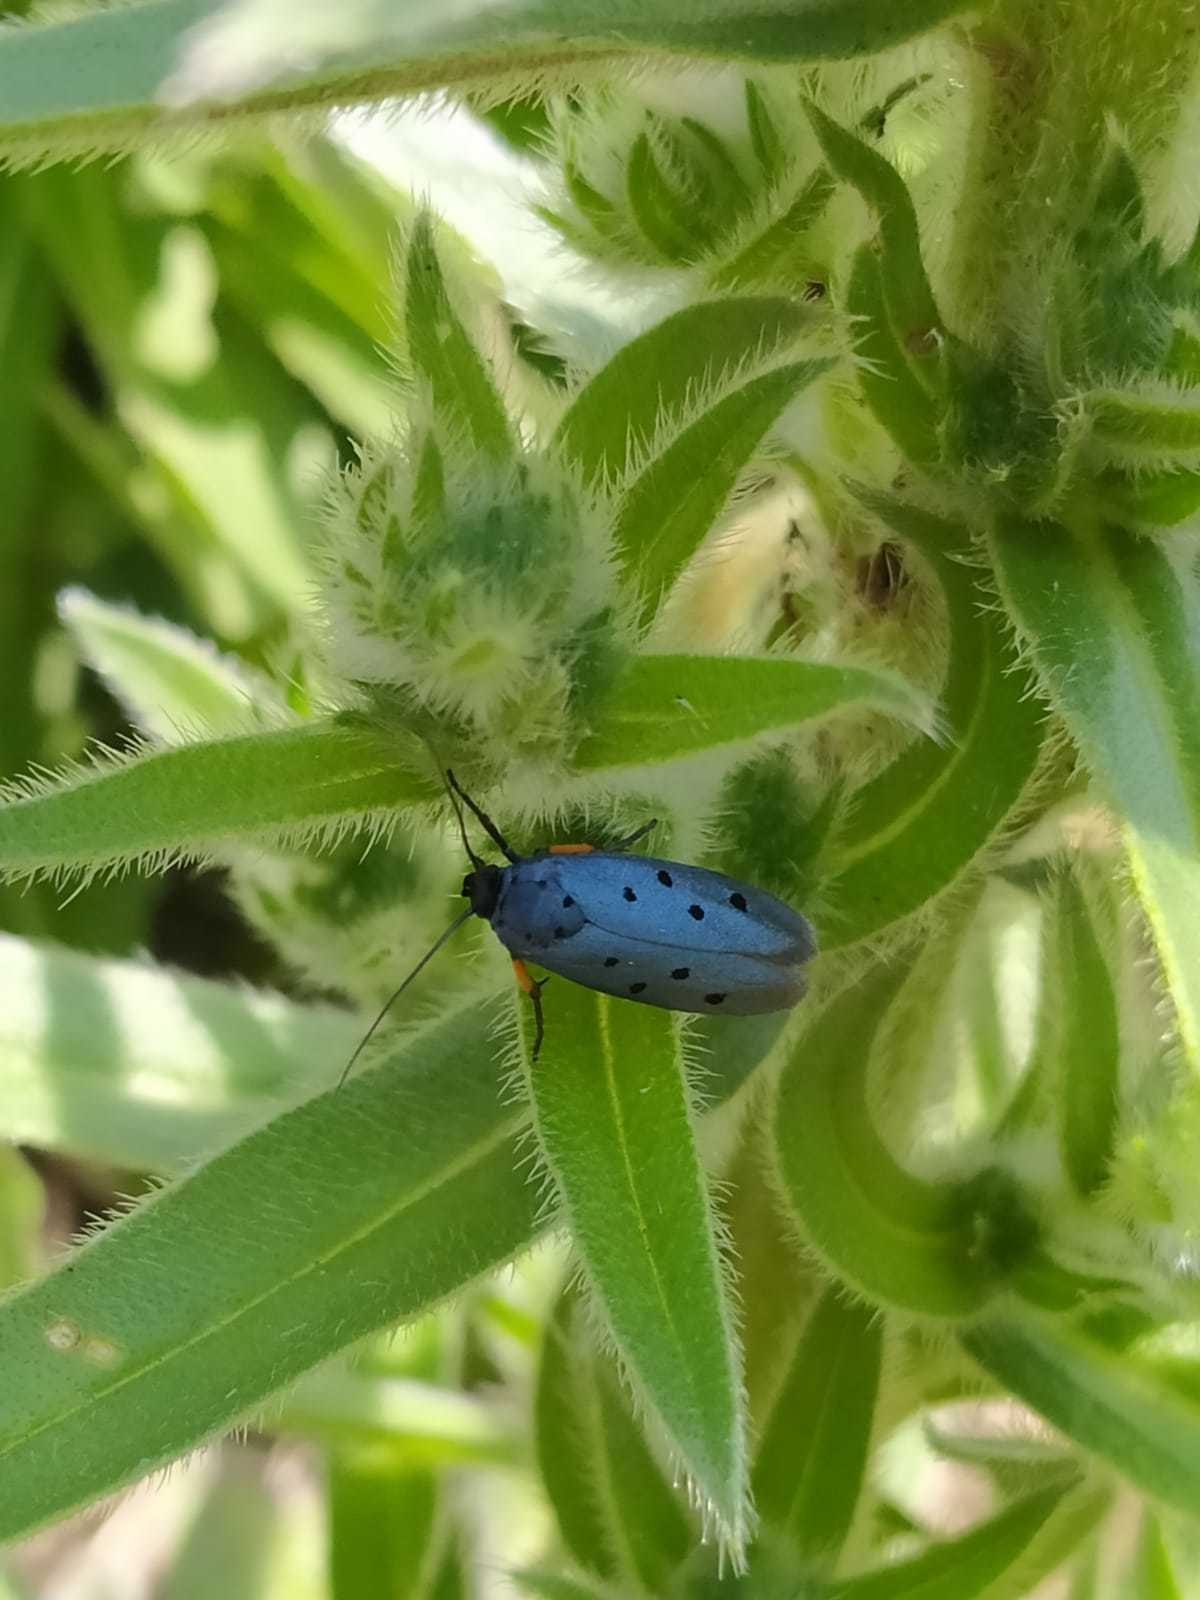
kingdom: Animalia
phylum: Arthropoda
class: Insecta
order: Lepidoptera
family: Ethmiidae
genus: Ethmia
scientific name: Ethmia aurifluella
